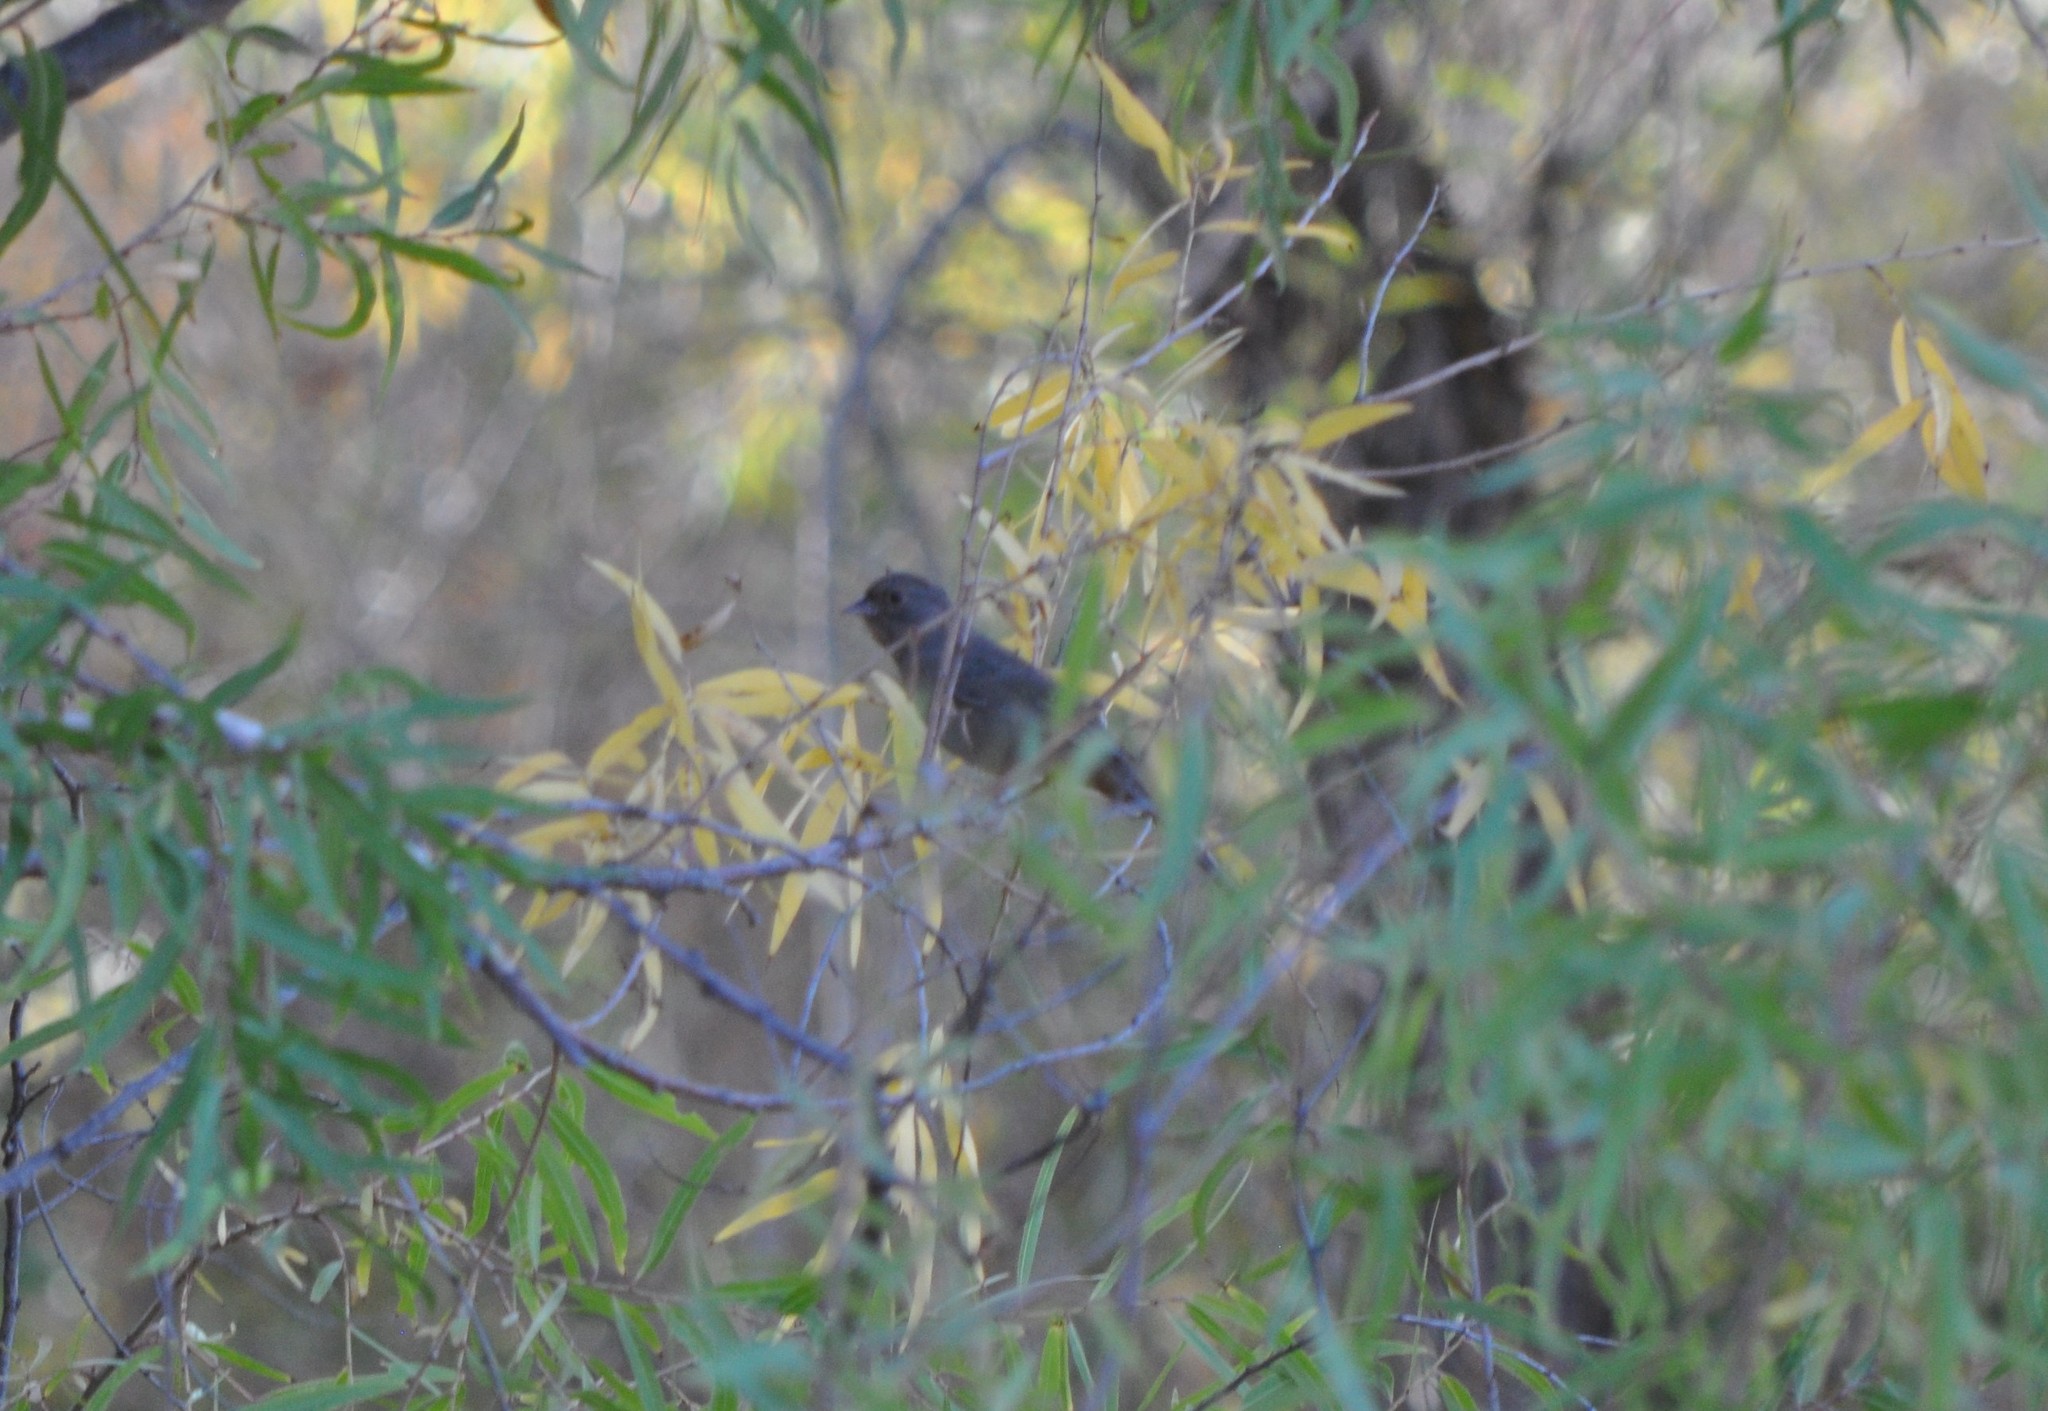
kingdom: Animalia
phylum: Chordata
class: Aves
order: Passeriformes
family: Passerellidae
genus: Melozone
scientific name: Melozone crissalis
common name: California towhee
